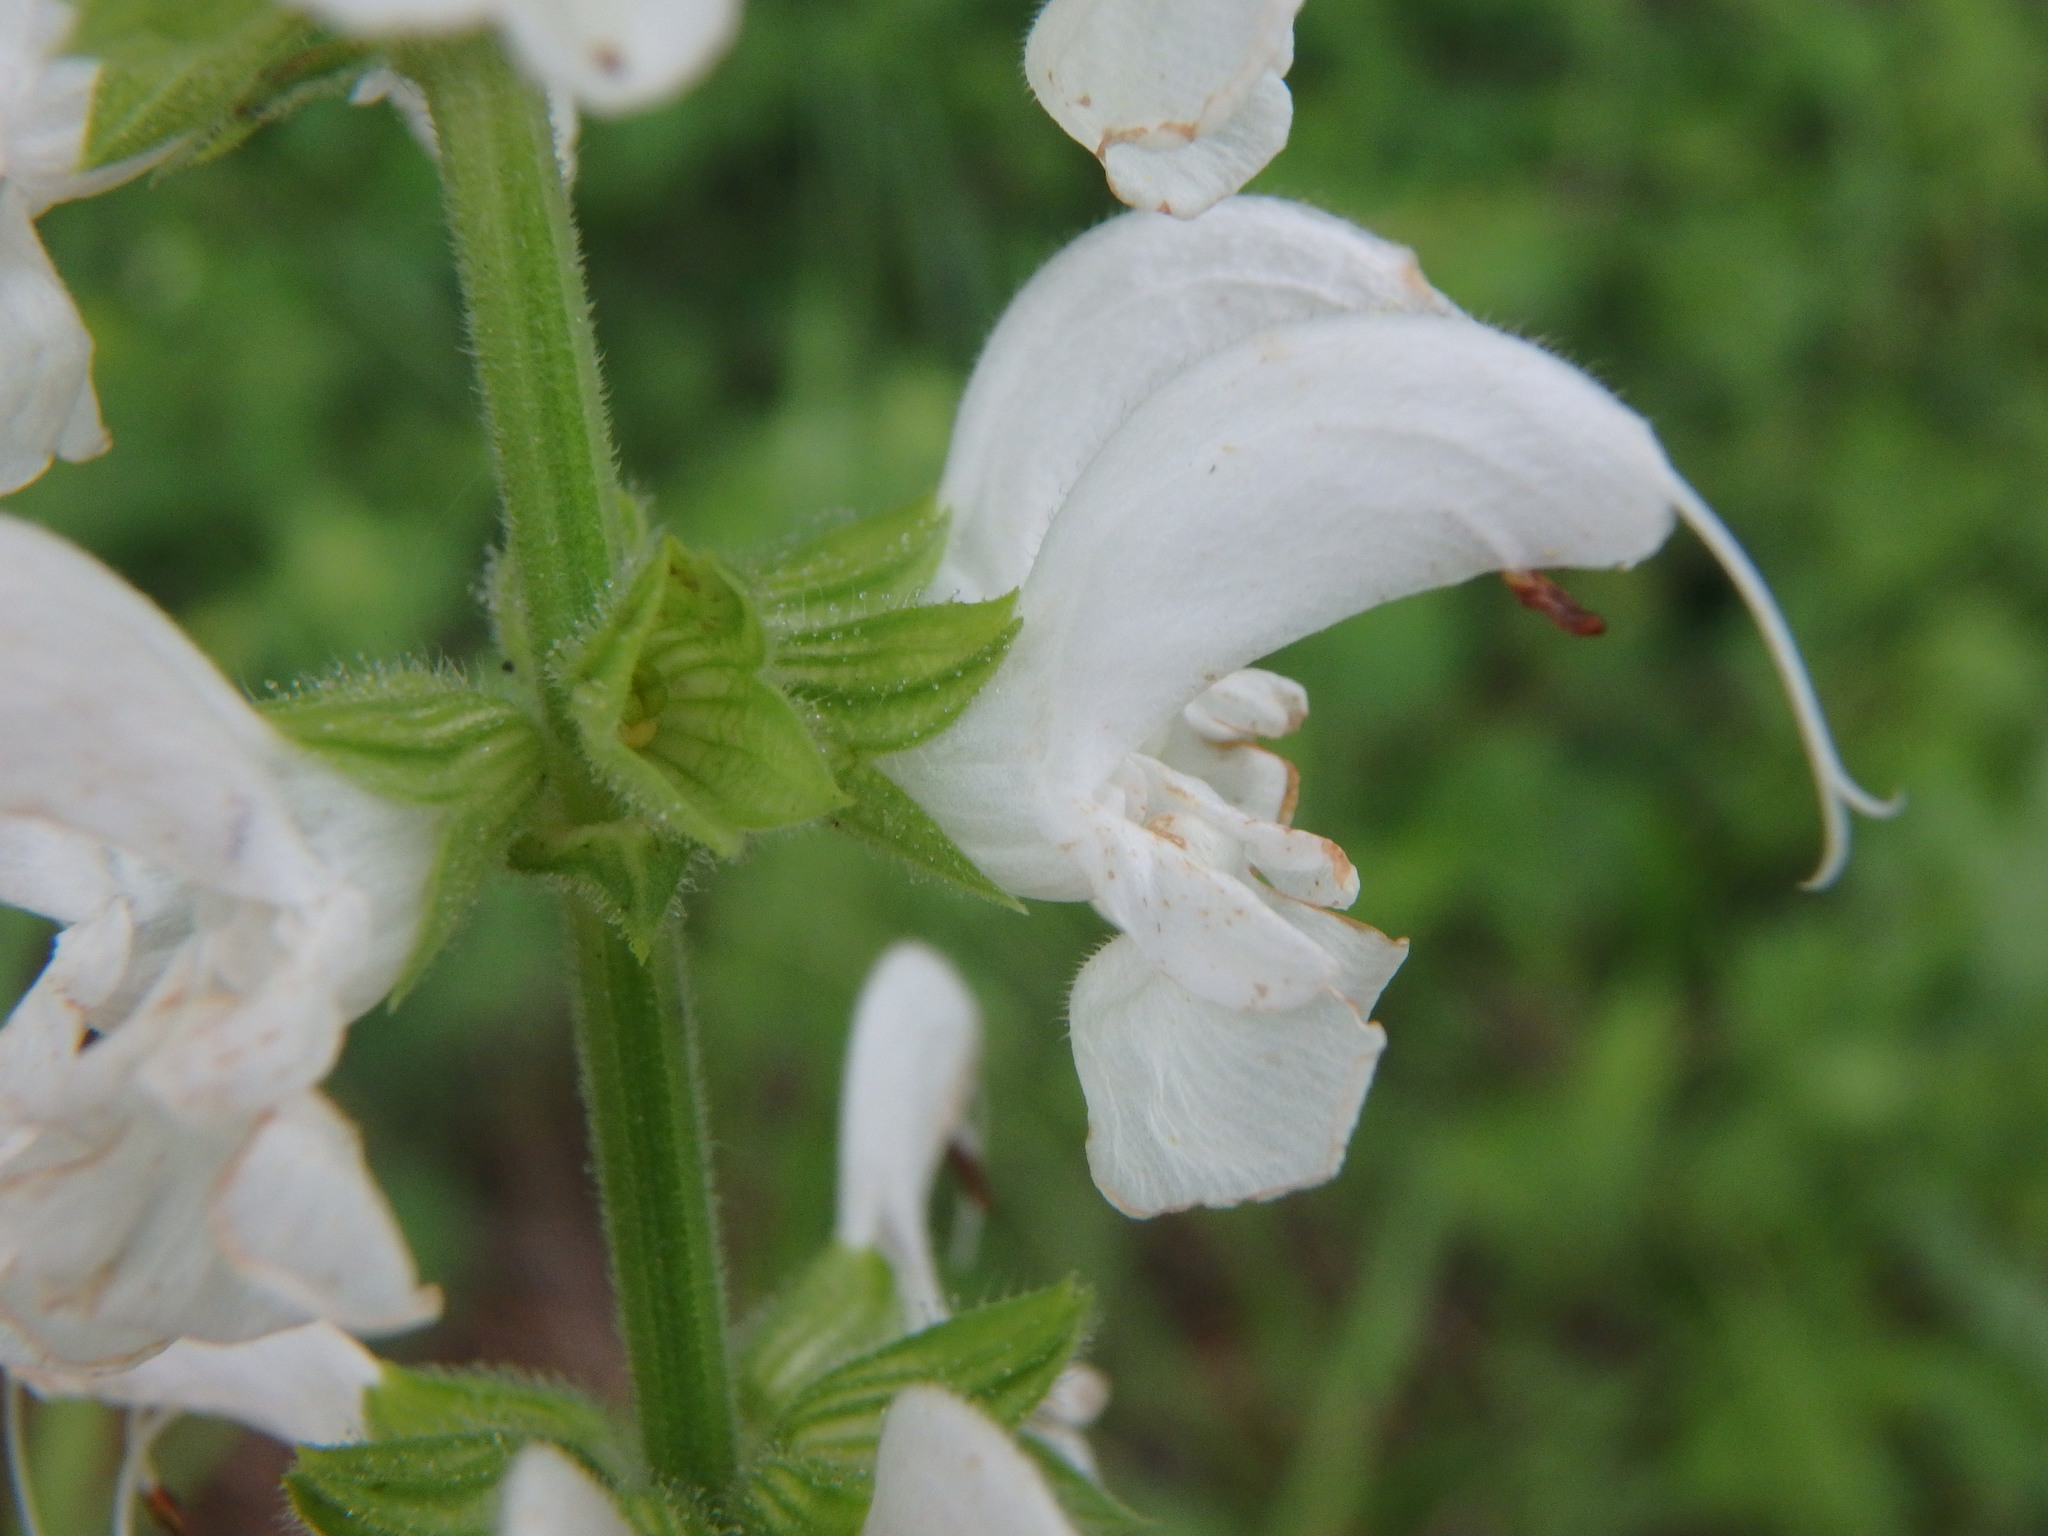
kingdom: Plantae
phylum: Tracheophyta
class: Magnoliopsida
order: Lamiales
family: Lamiaceae
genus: Salvia
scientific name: Salvia pratensis
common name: Meadow sage
